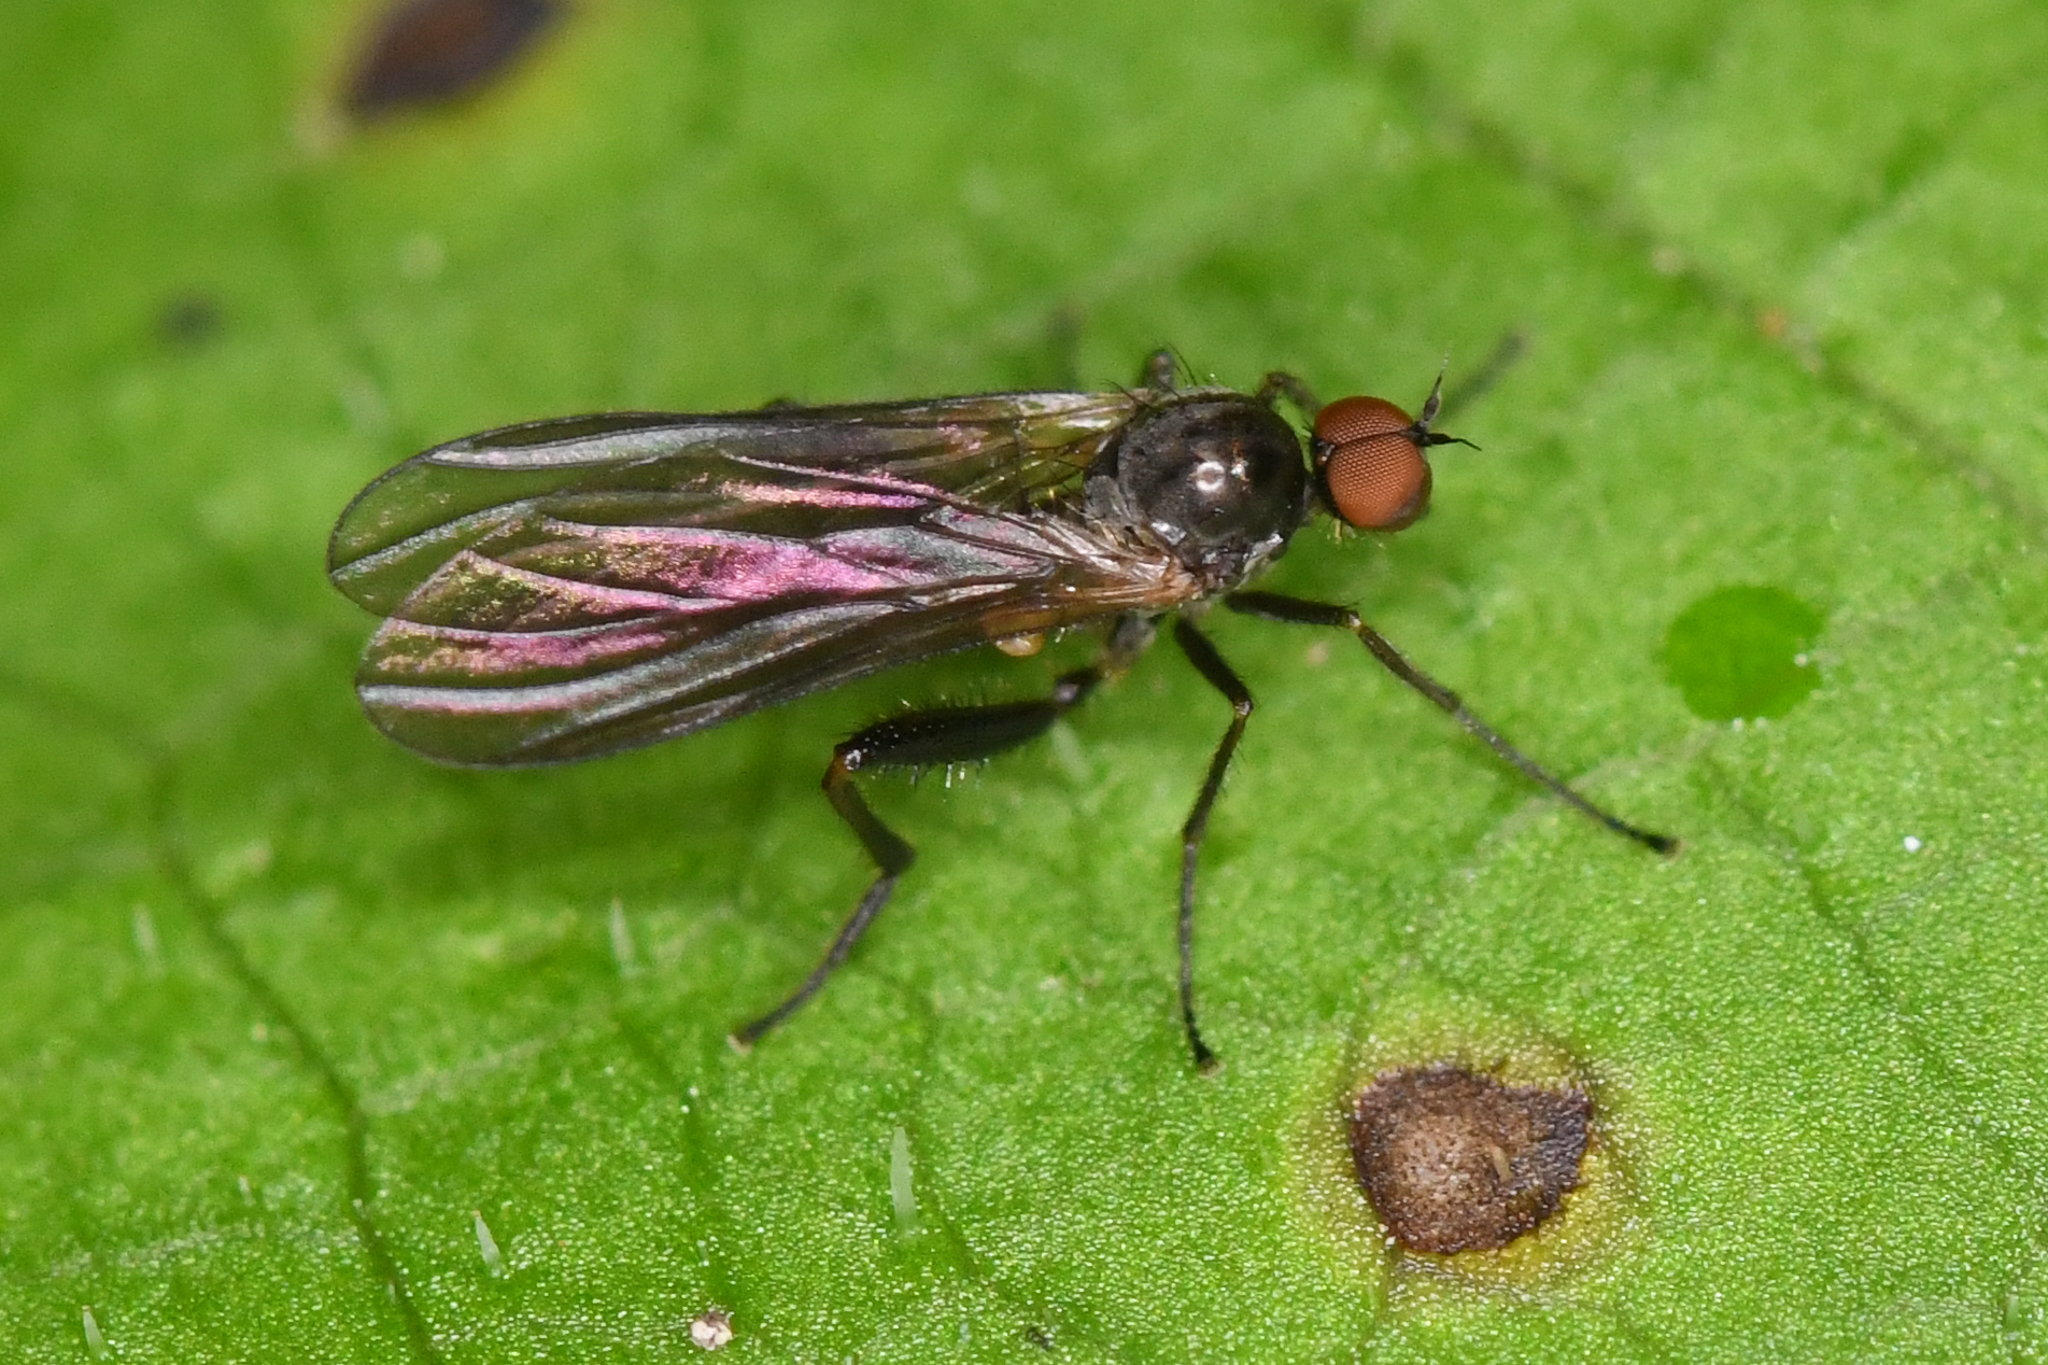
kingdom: Animalia
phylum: Arthropoda
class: Insecta
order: Diptera
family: Hybotidae
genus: Hoplocyrtoma
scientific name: Hoplocyrtoma procera
